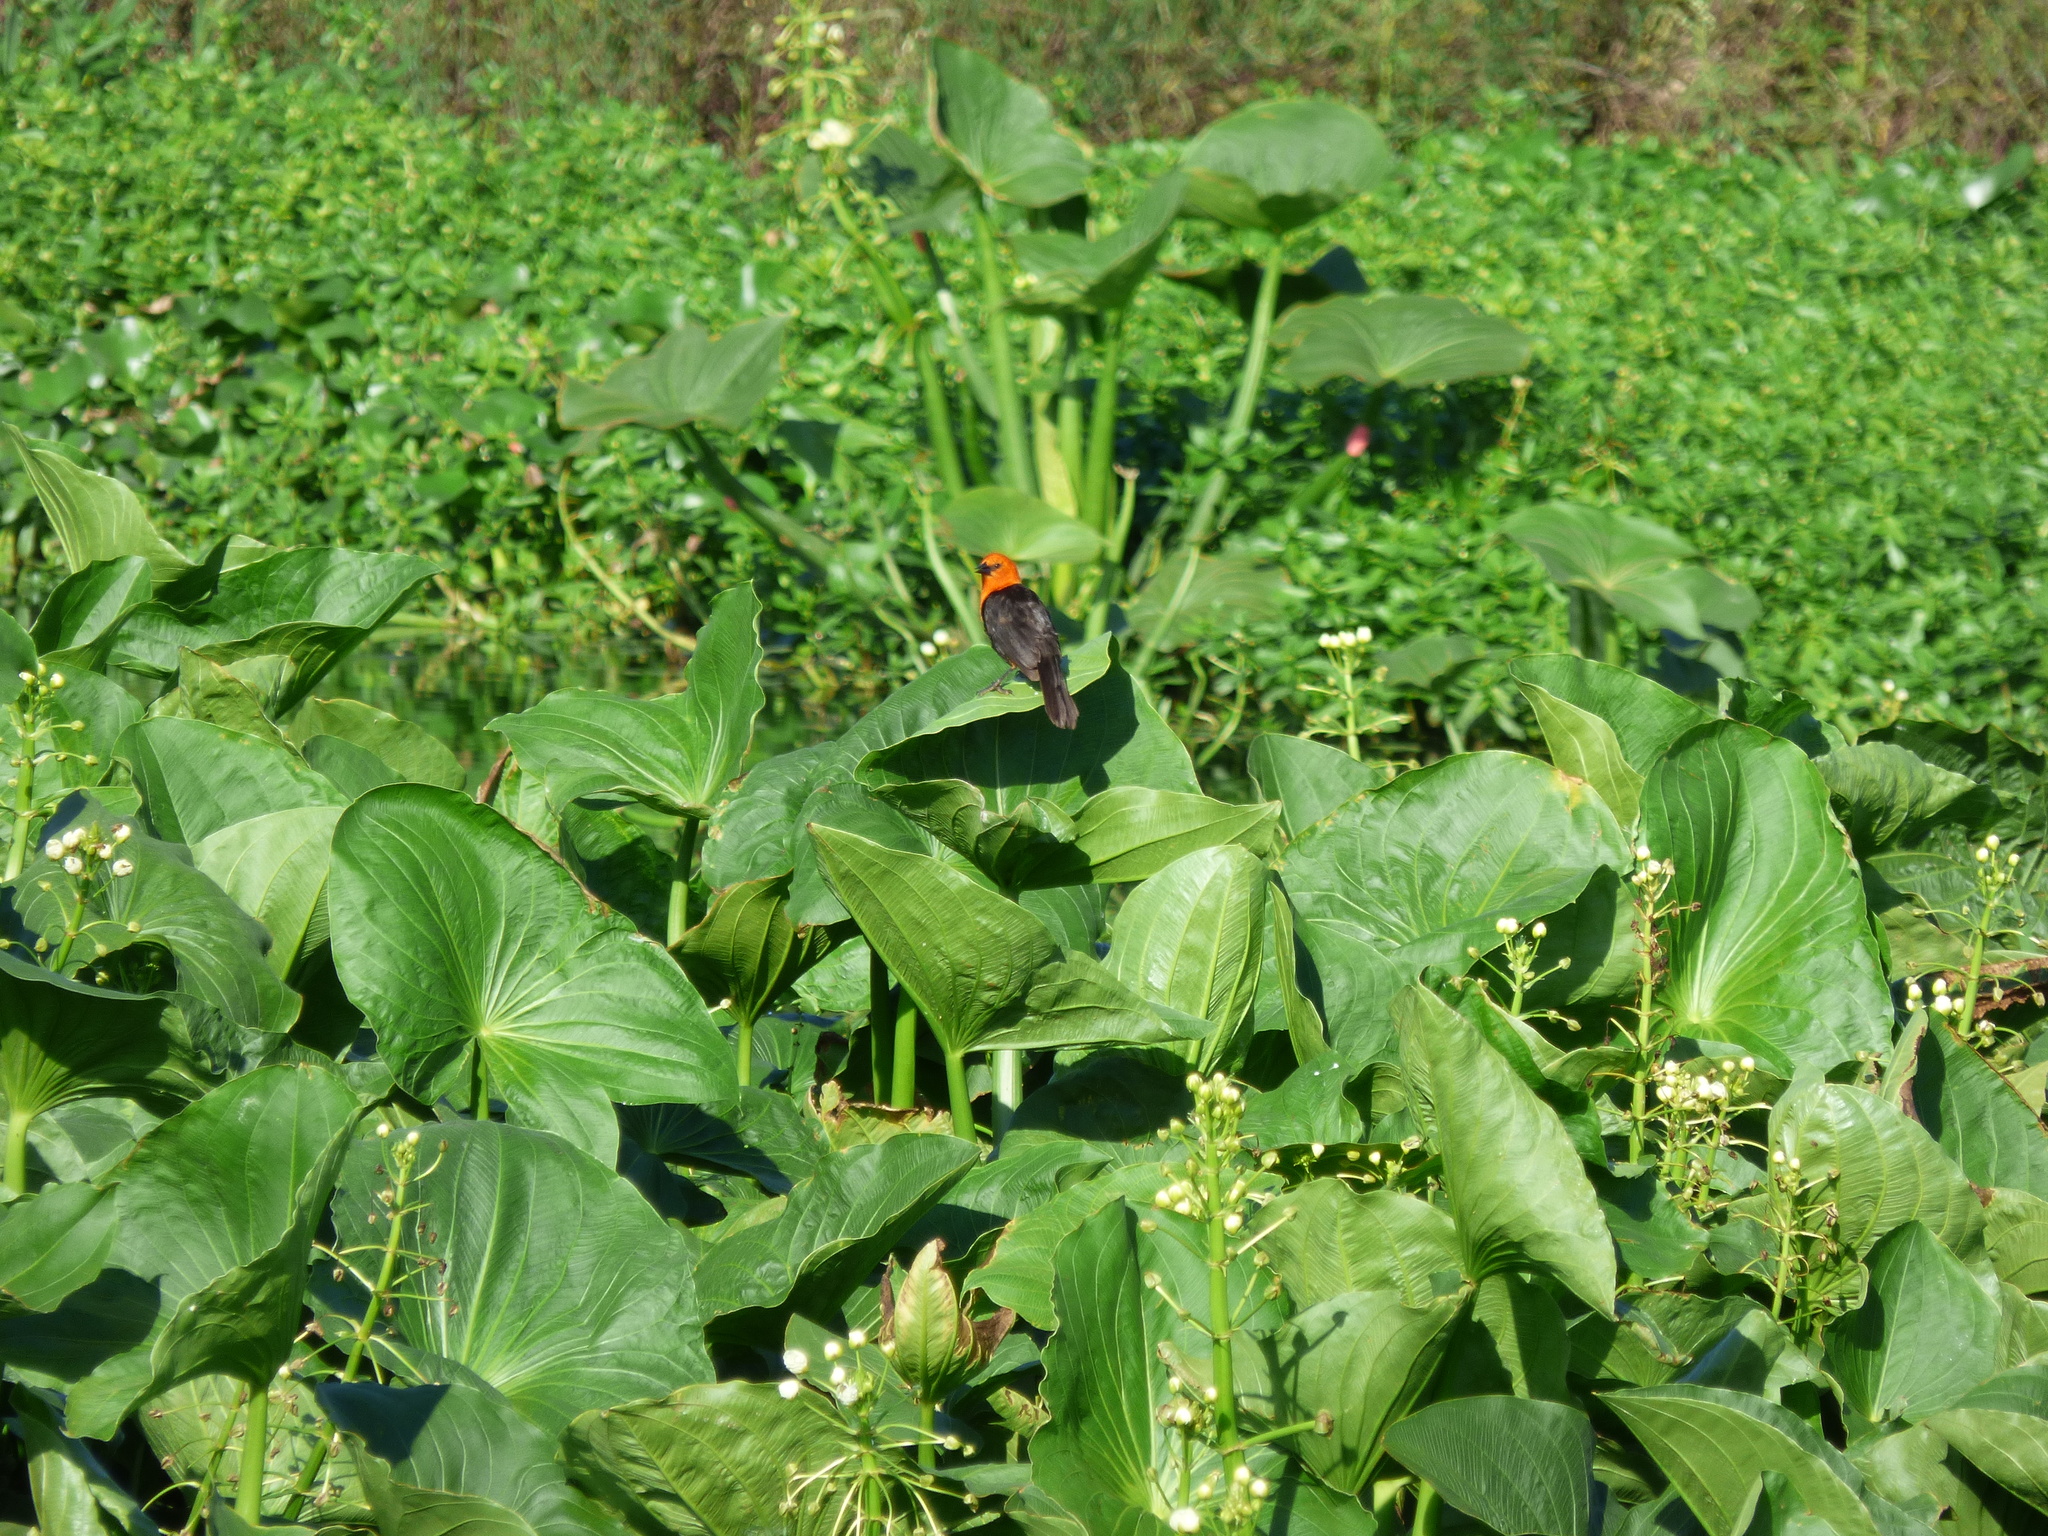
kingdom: Animalia
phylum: Chordata
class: Aves
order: Passeriformes
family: Icteridae
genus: Amblyramphus
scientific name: Amblyramphus holosericeus
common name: Scarlet-headed blackbird
